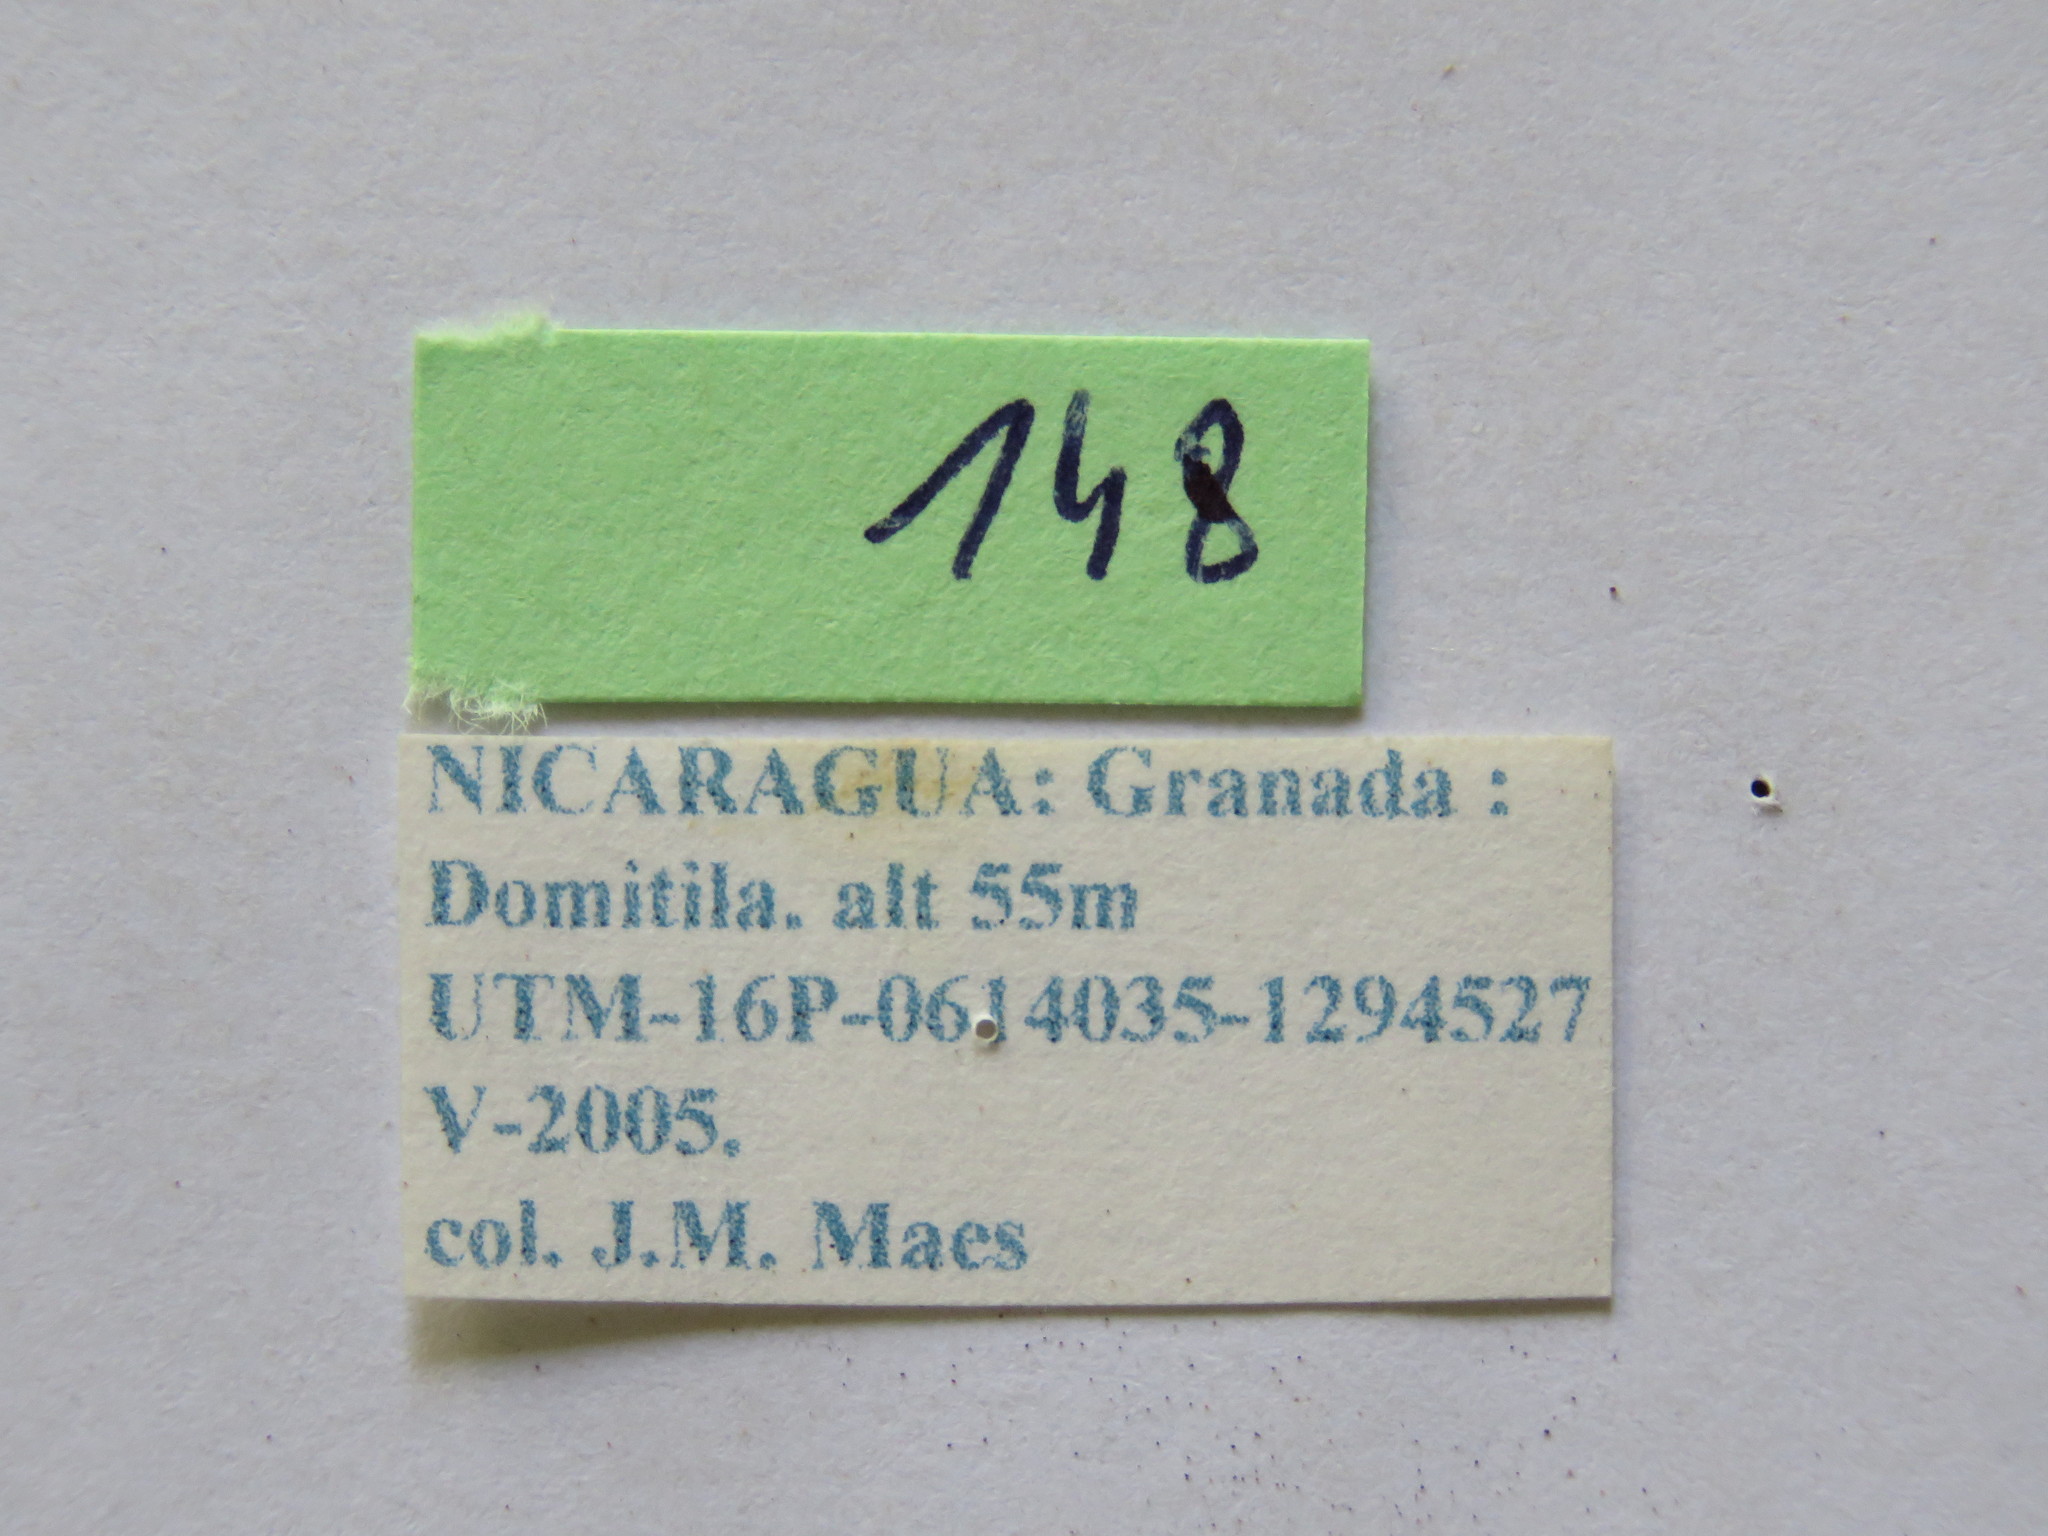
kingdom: Animalia
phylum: Arthropoda
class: Insecta
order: Hemiptera
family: Coreidae
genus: Piezogaster
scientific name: Piezogaster chontalensis
